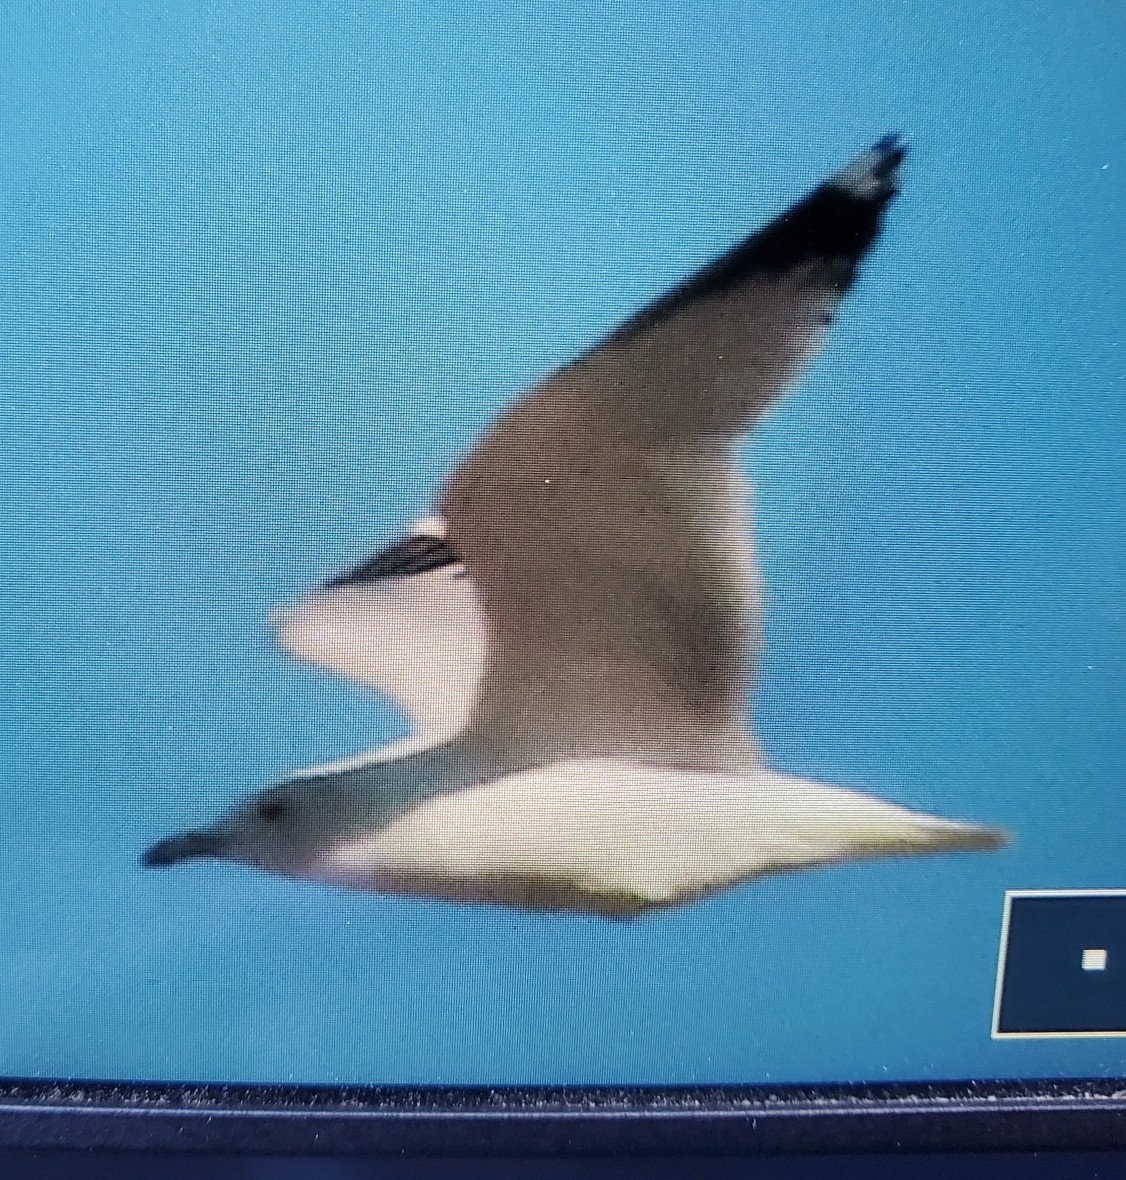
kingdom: Animalia
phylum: Chordata
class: Aves
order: Charadriiformes
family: Laridae
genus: Larus
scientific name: Larus delawarensis
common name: Ring-billed gull
